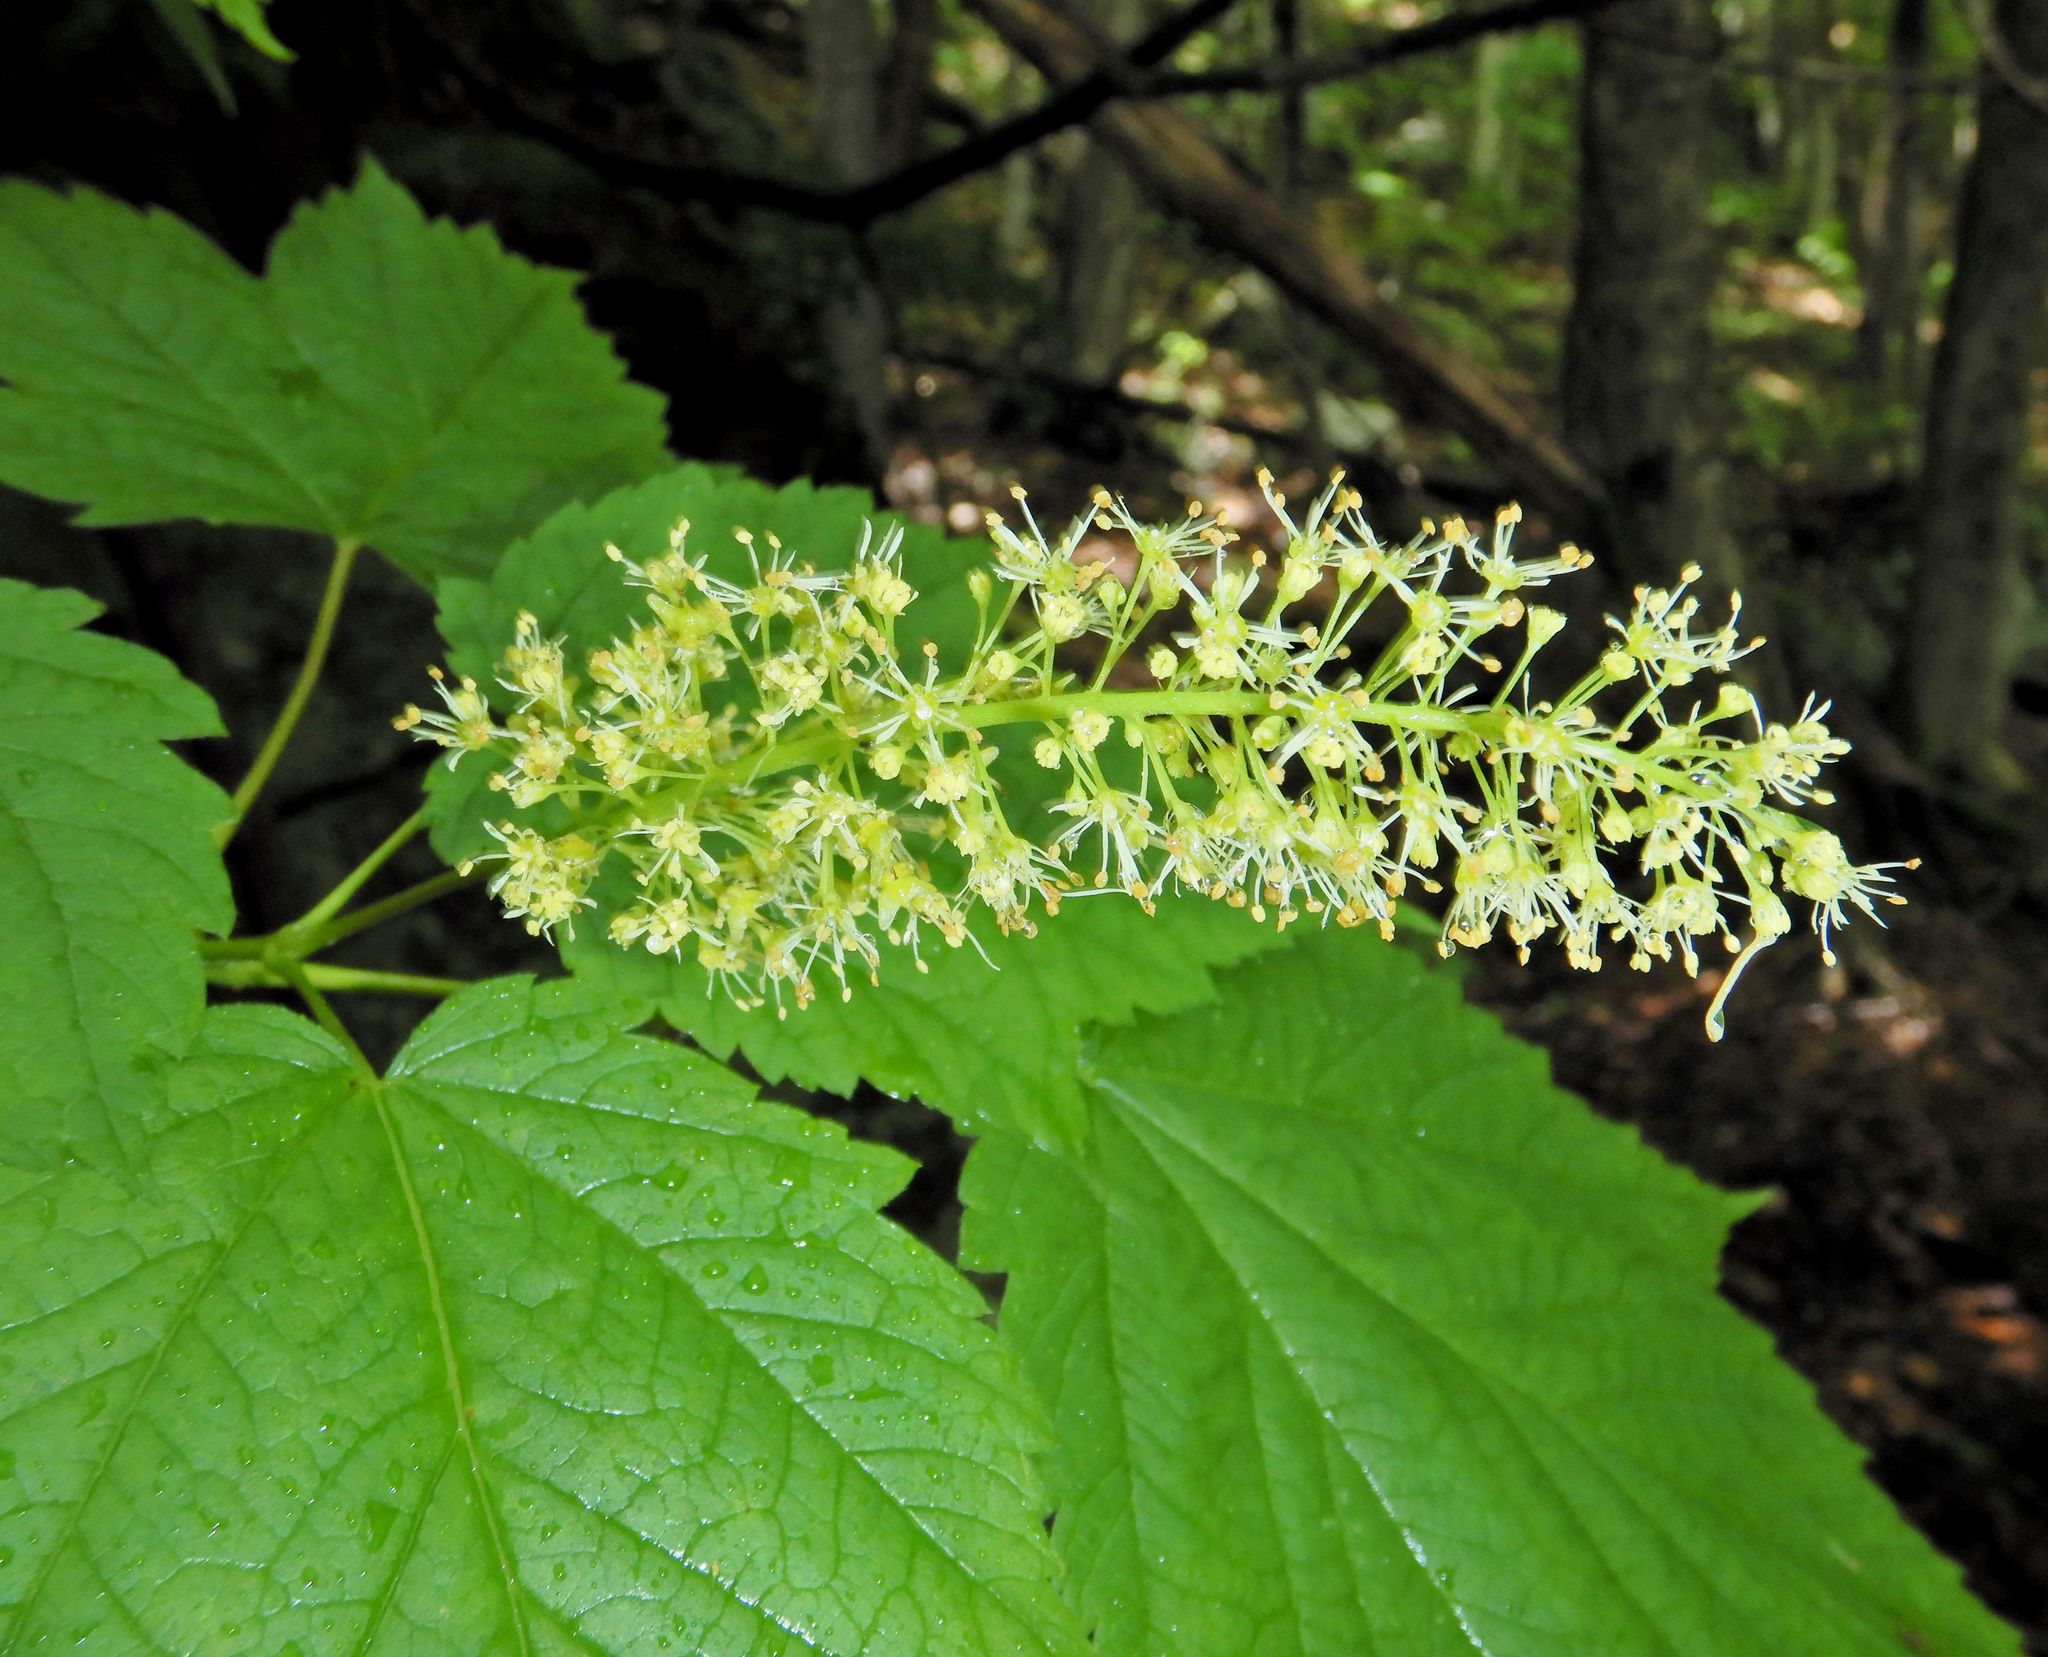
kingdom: Plantae
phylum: Tracheophyta
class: Magnoliopsida
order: Sapindales
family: Sapindaceae
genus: Acer
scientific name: Acer spicatum
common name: Mountain maple
